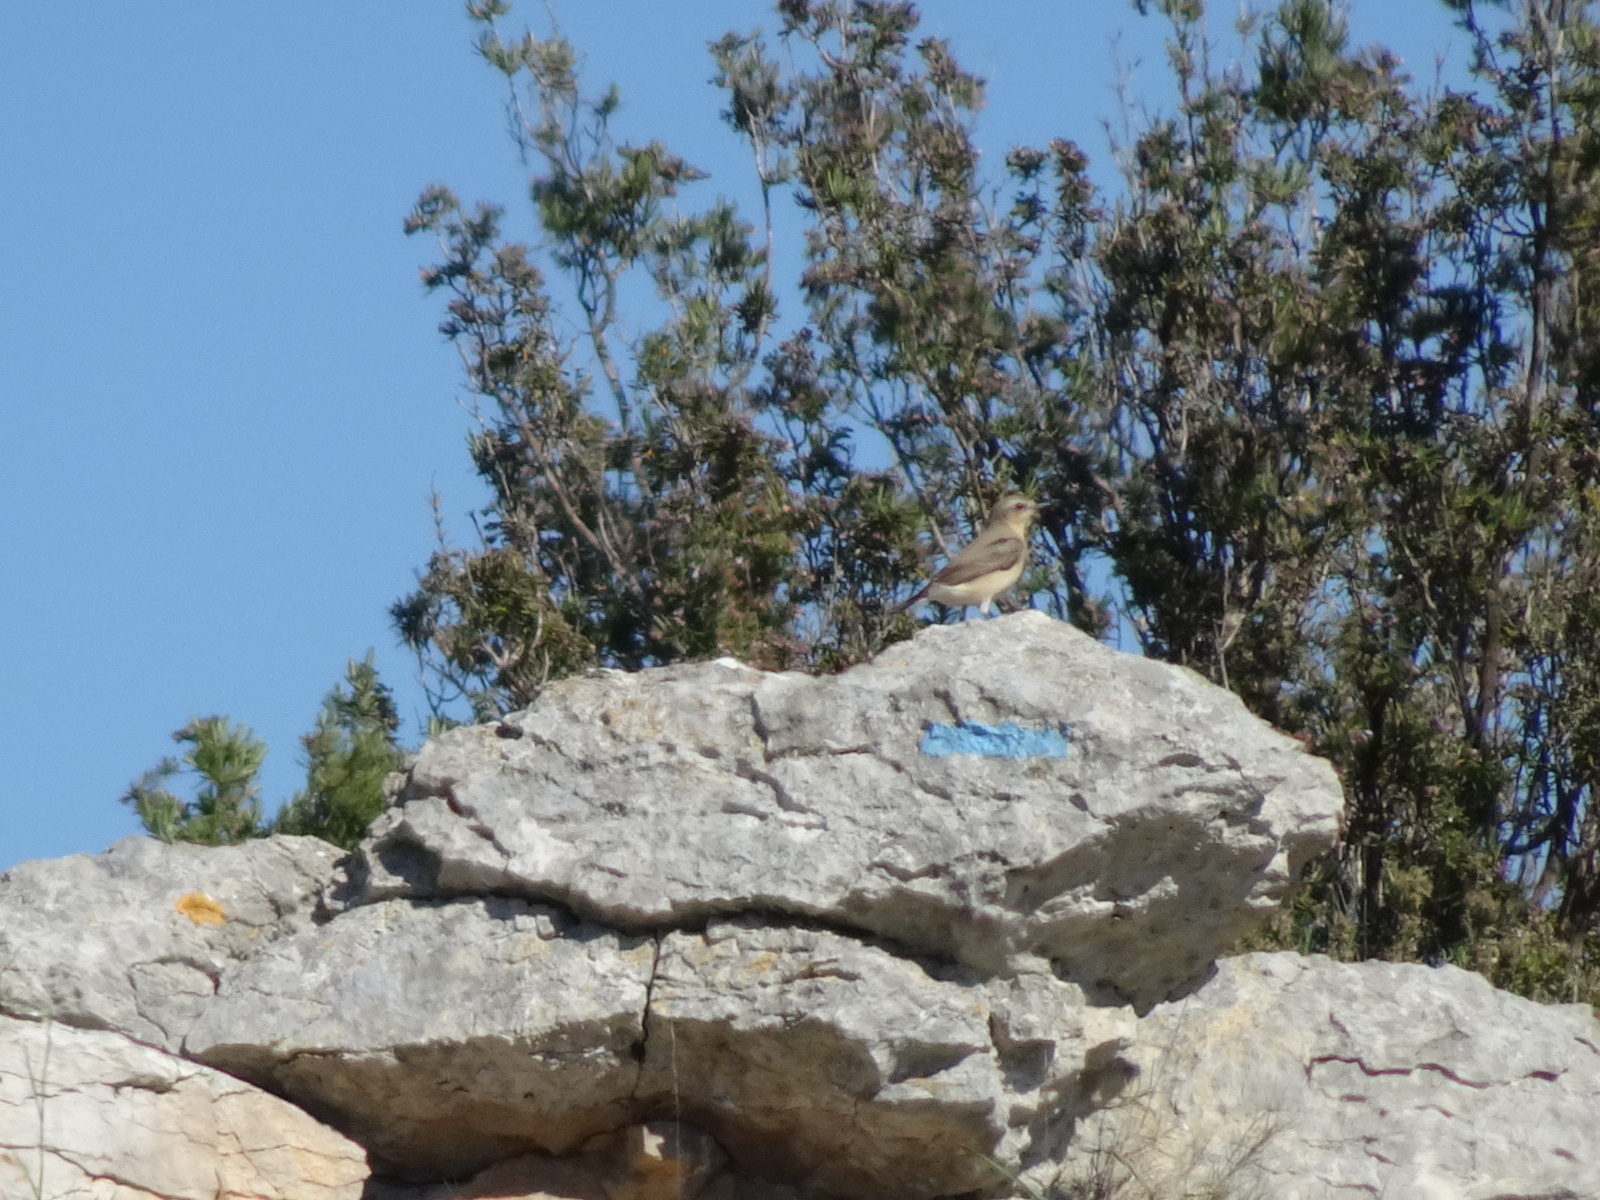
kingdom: Animalia
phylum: Chordata
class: Aves
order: Passeriformes
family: Muscicapidae
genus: Oenanthe
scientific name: Oenanthe oenanthe
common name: Northern wheatear
